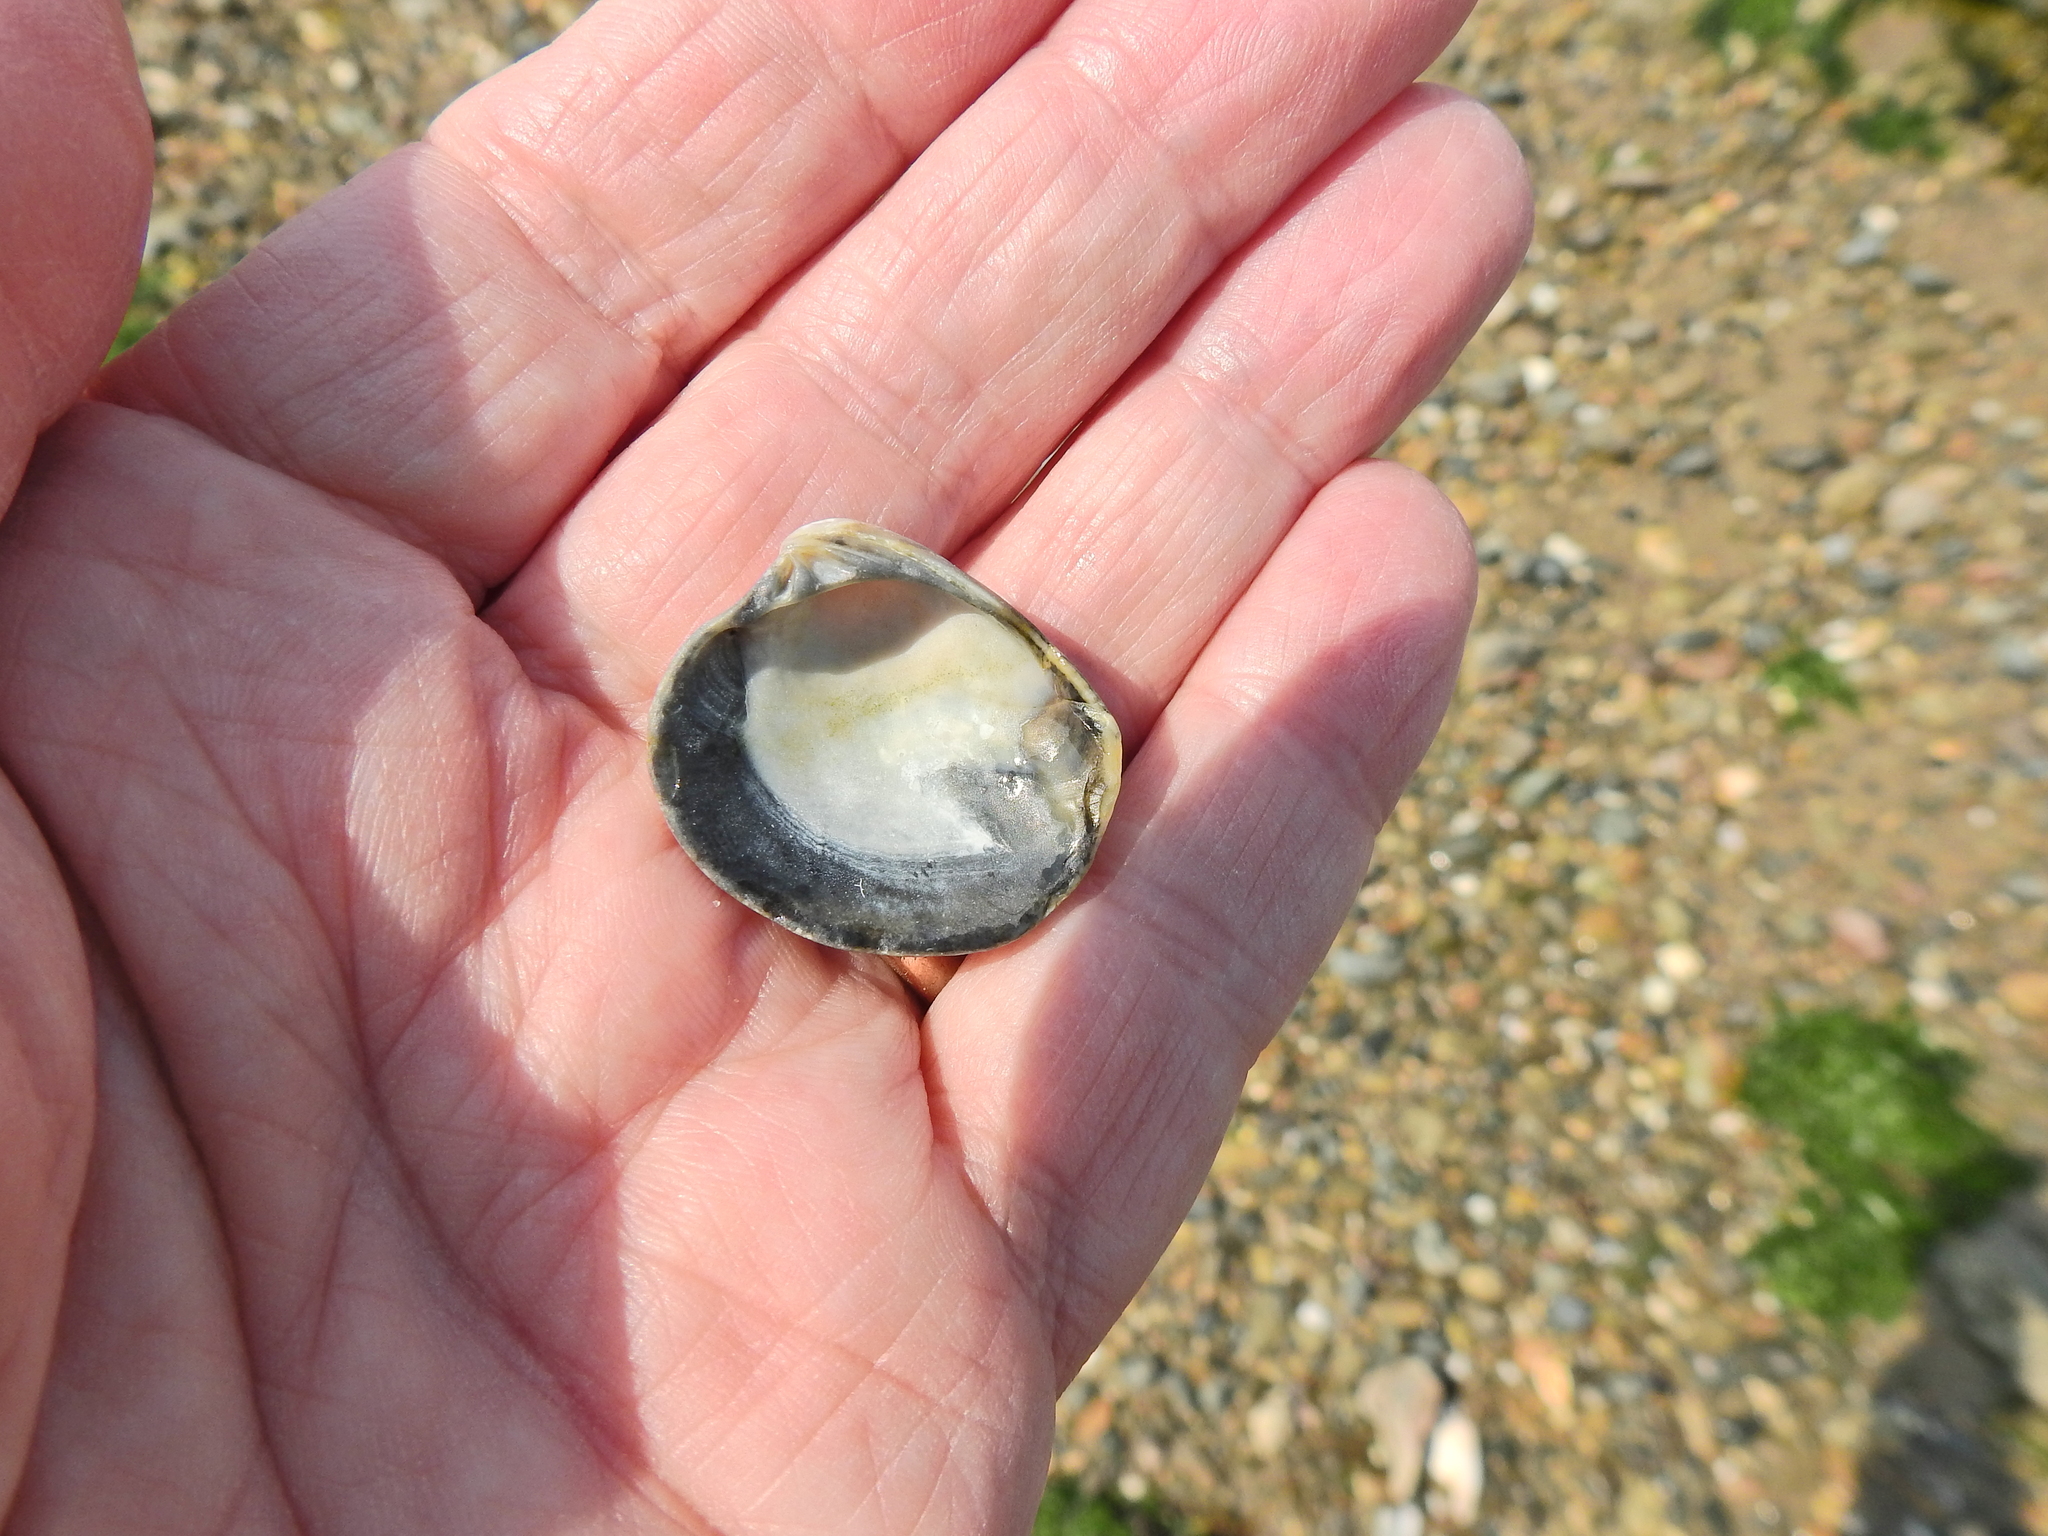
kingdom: Animalia
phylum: Mollusca
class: Bivalvia
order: Venerida
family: Veneridae
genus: Chamelea
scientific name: Chamelea striatula
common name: Striped venus
